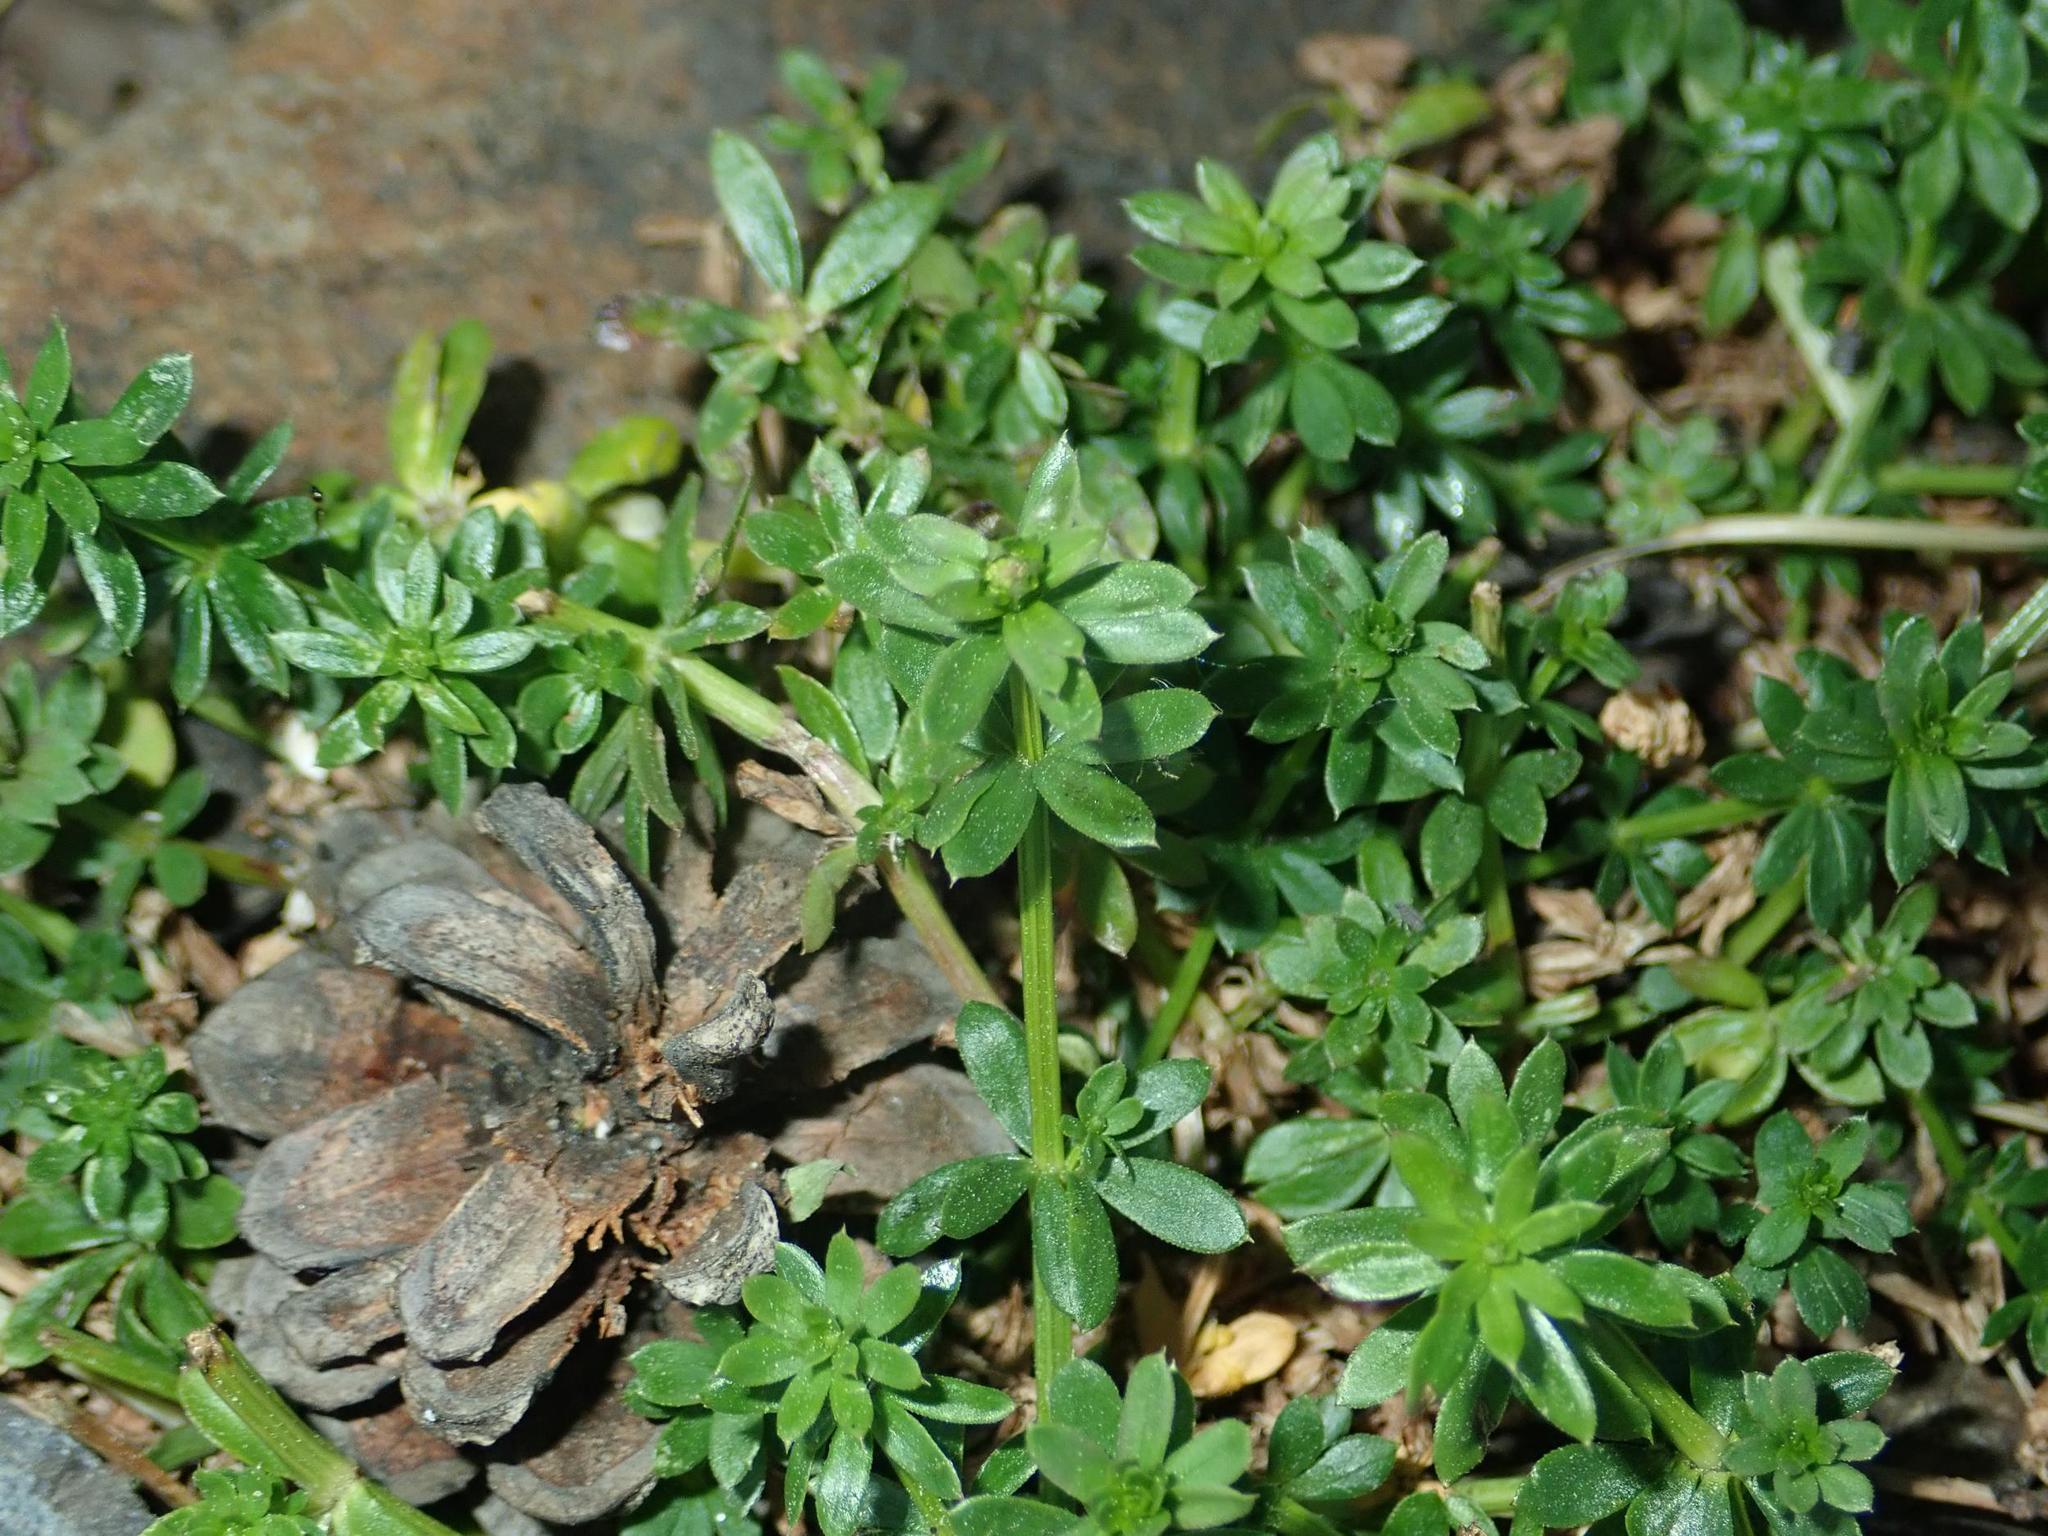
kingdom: Plantae
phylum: Tracheophyta
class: Magnoliopsida
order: Gentianales
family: Rubiaceae
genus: Galium
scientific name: Galium mollugo
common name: Hedge bedstraw
